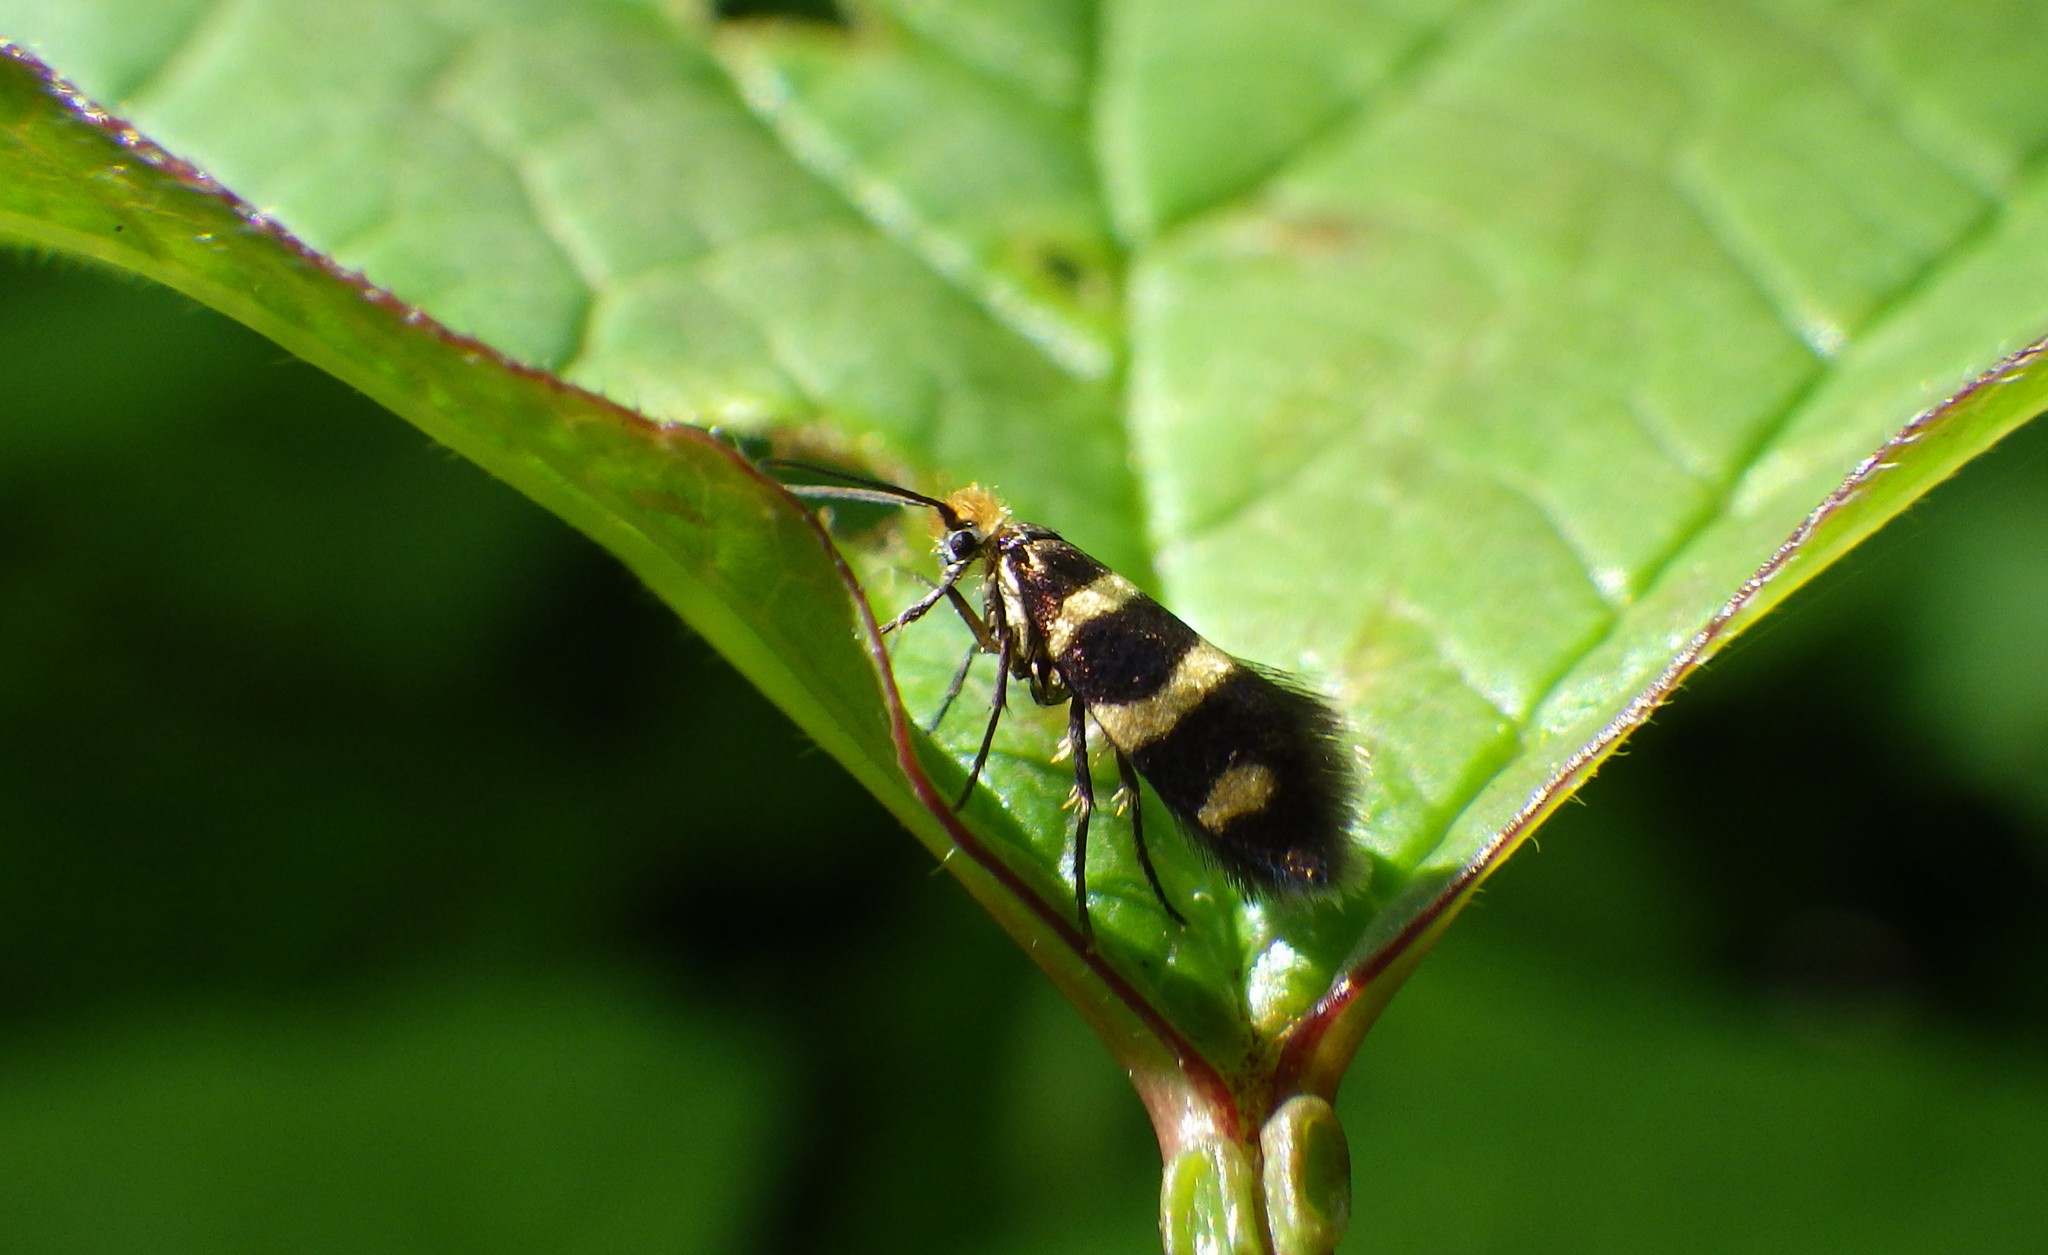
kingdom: Animalia
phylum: Arthropoda
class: Insecta
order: Lepidoptera
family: Micropterigidae
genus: Micropterix
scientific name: Micropterix aureatella
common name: Yellow-barred gold
